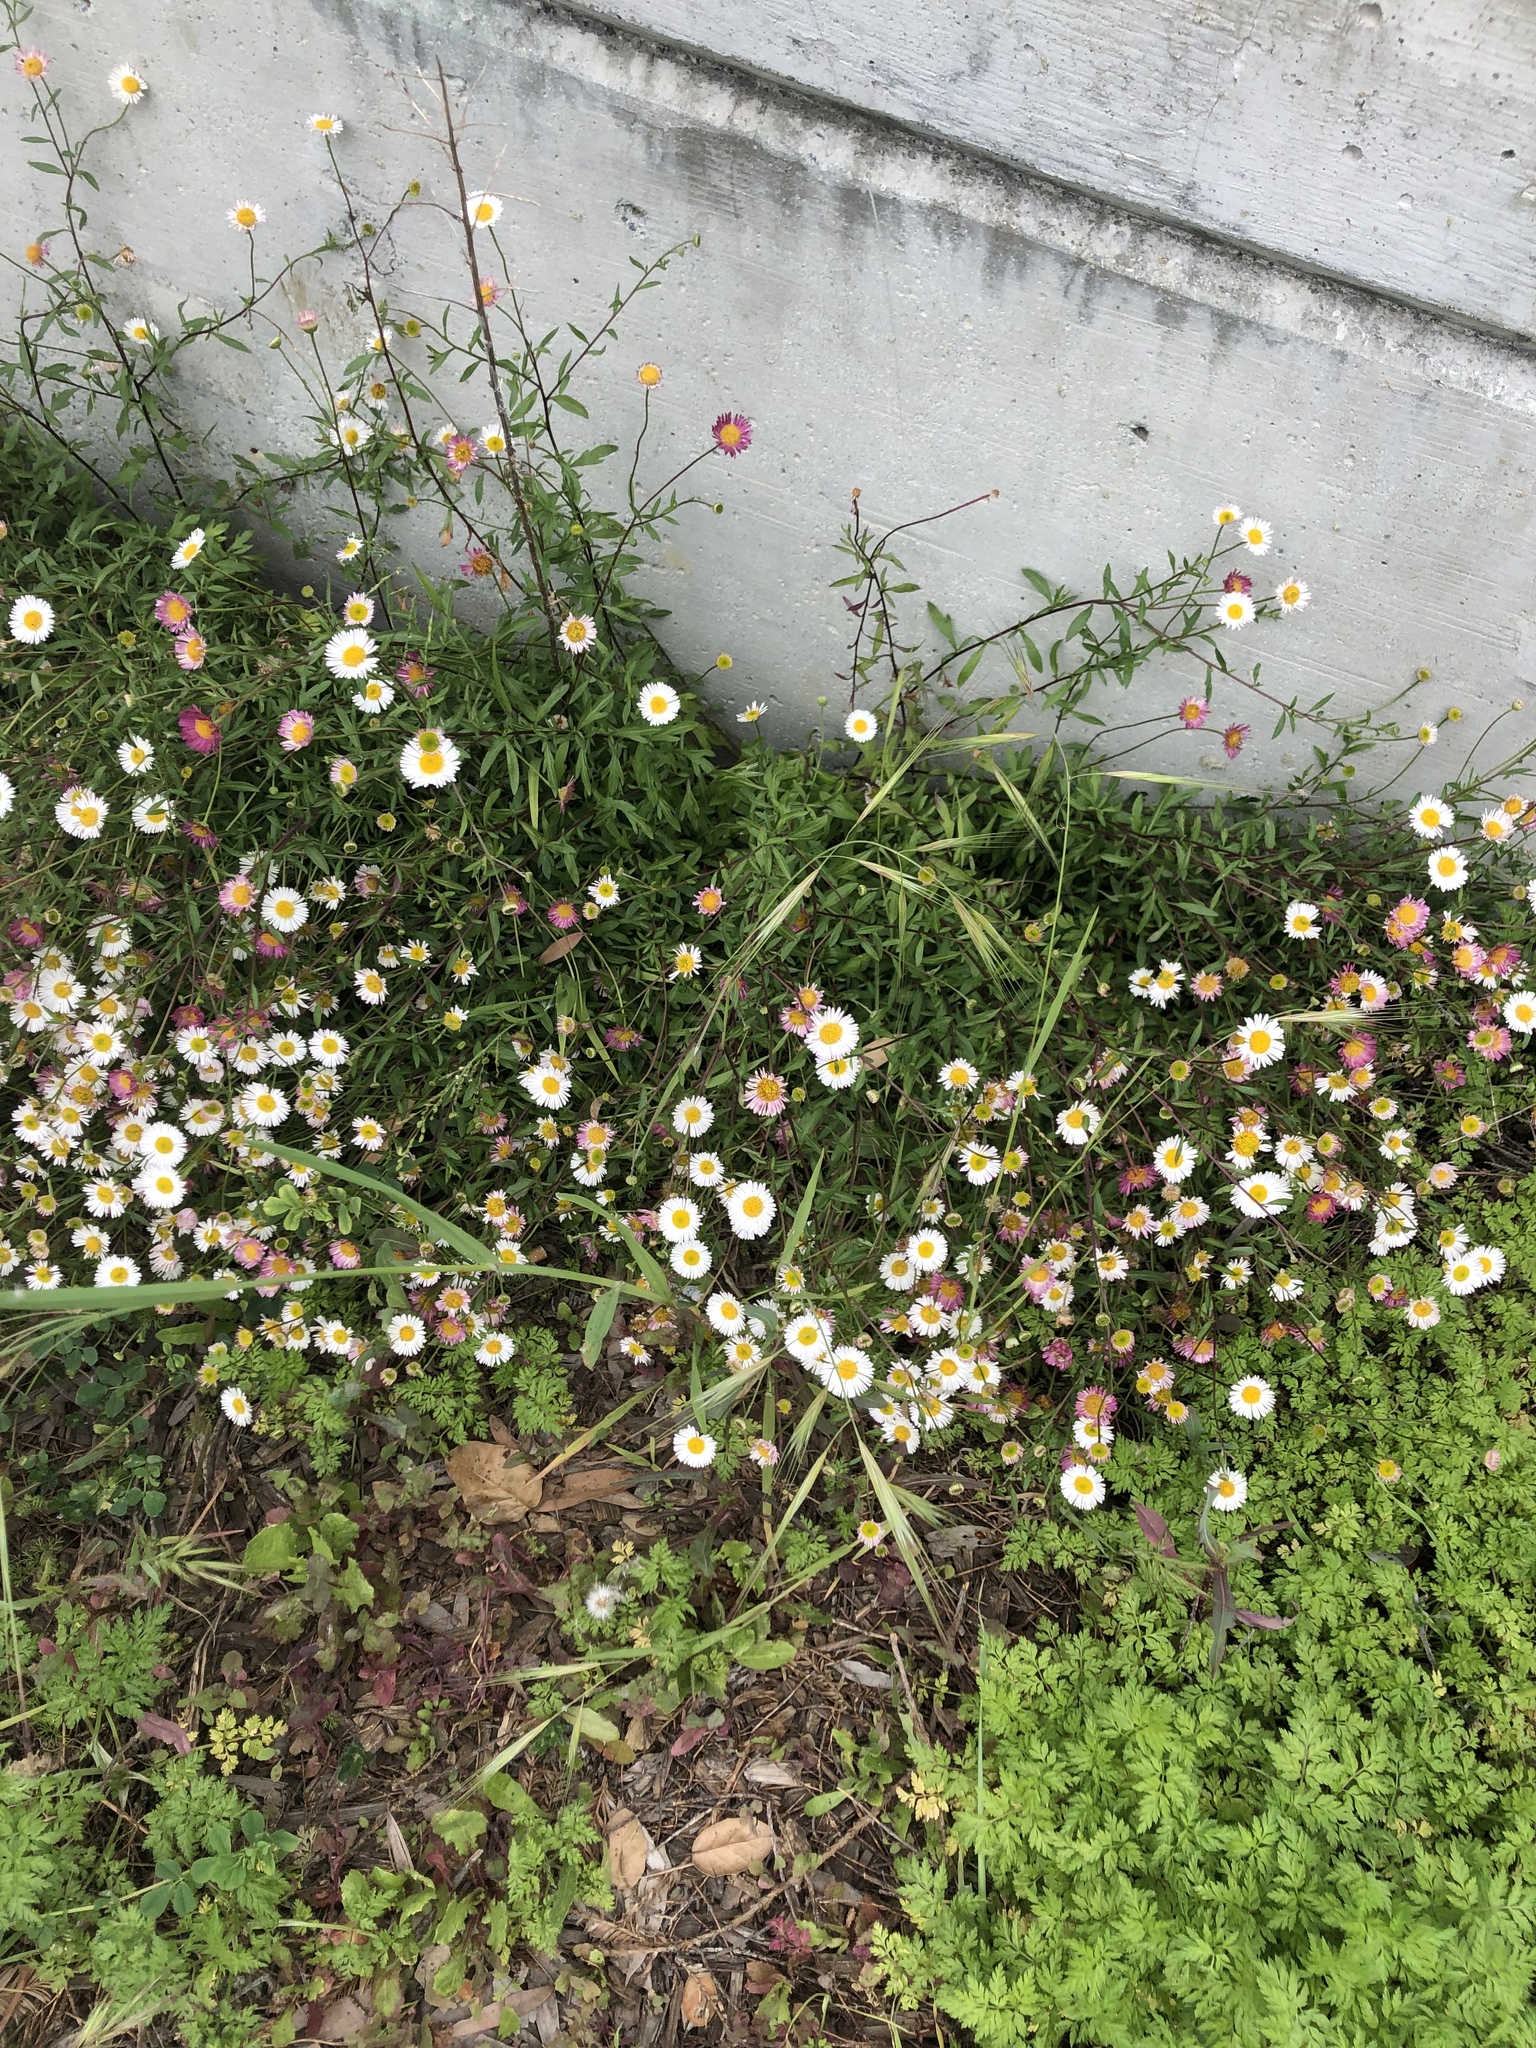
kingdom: Plantae
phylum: Tracheophyta
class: Magnoliopsida
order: Asterales
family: Asteraceae
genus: Erigeron
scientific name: Erigeron karvinskianus
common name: Mexican fleabane
